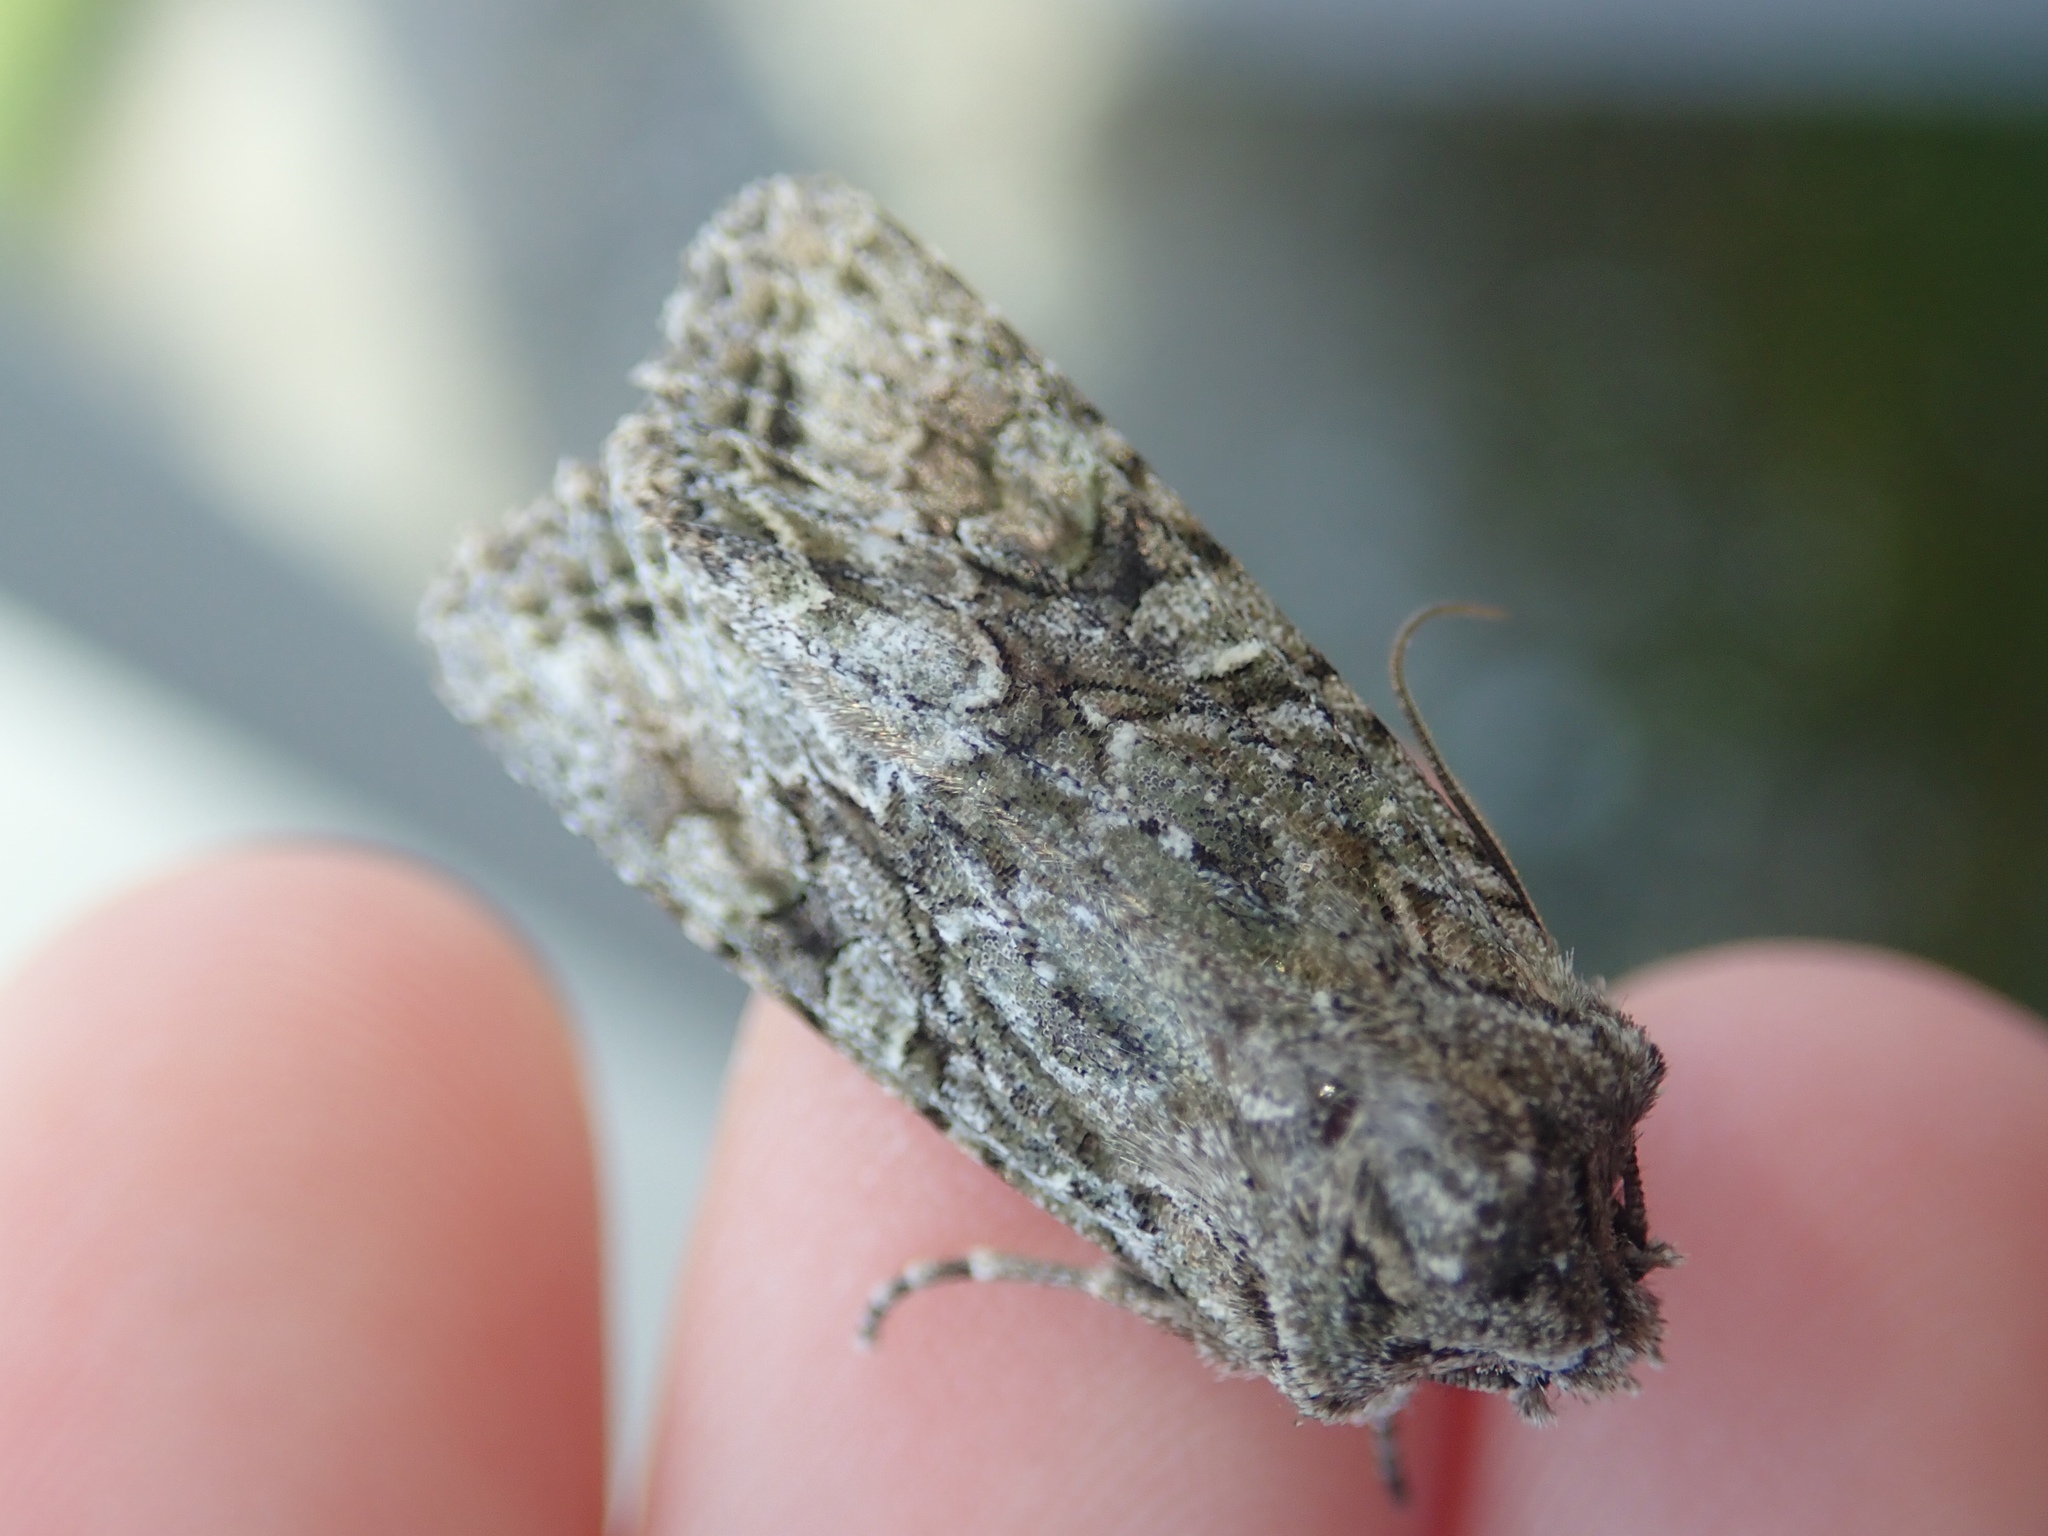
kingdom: Animalia
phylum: Arthropoda
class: Insecta
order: Lepidoptera
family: Noctuidae
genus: Ichneutica
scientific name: Ichneutica mutans
